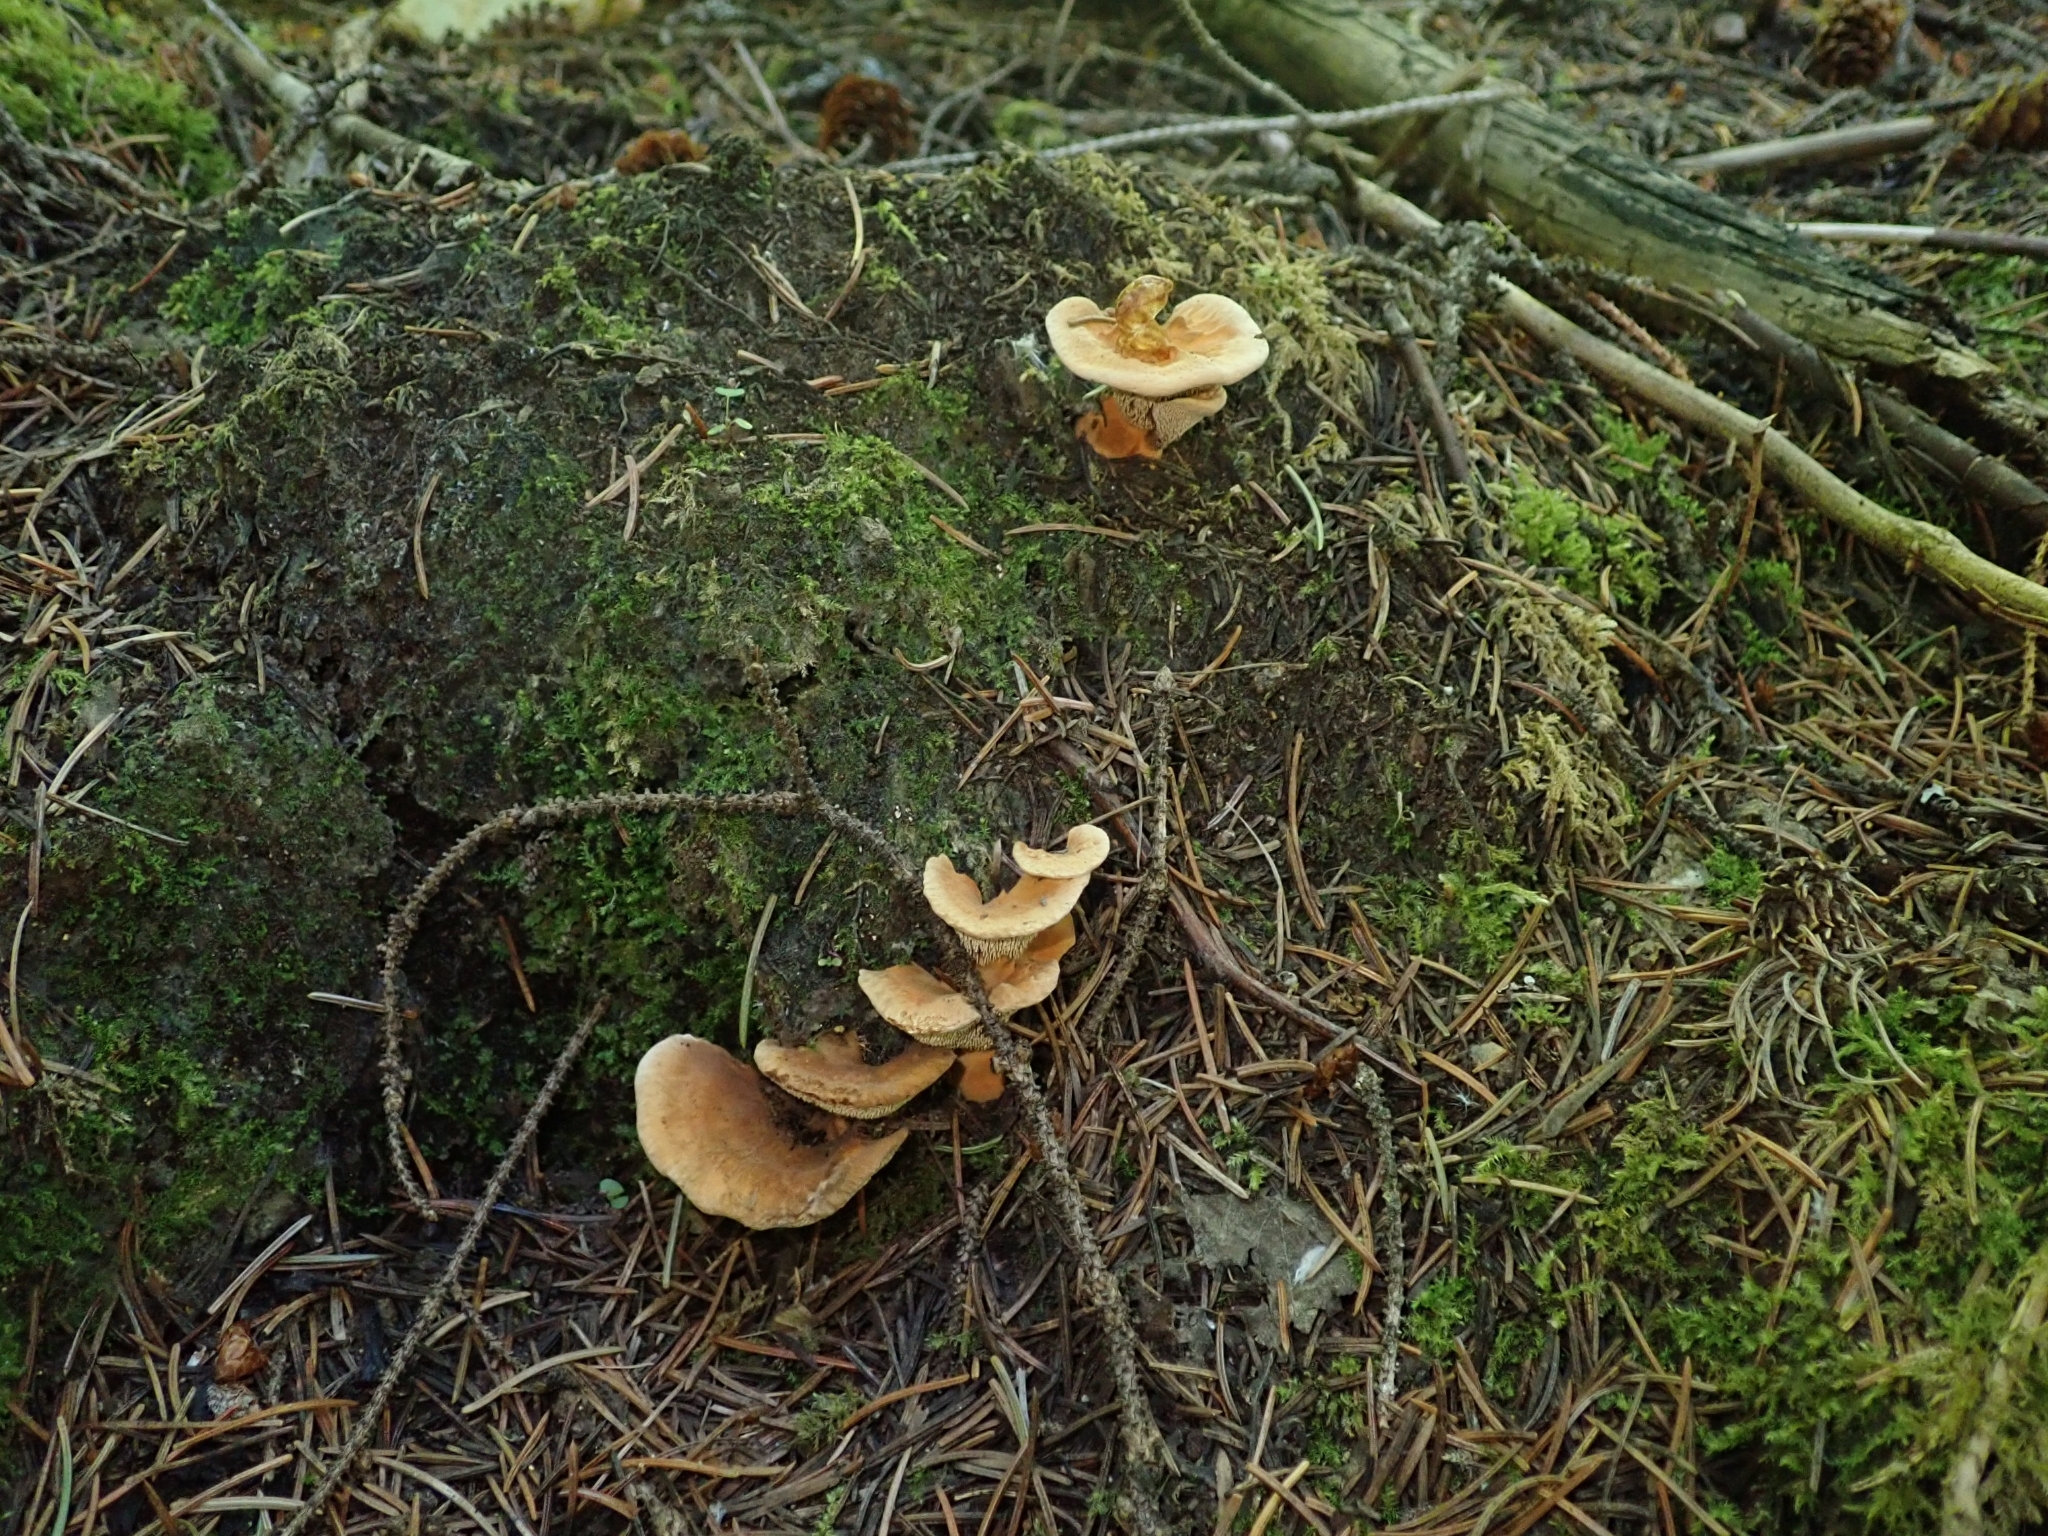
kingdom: Fungi
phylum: Basidiomycota
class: Agaricomycetes
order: Thelephorales
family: Bankeraceae
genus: Hydnellum
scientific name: Hydnellum aurantiacum
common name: Orange tooth
